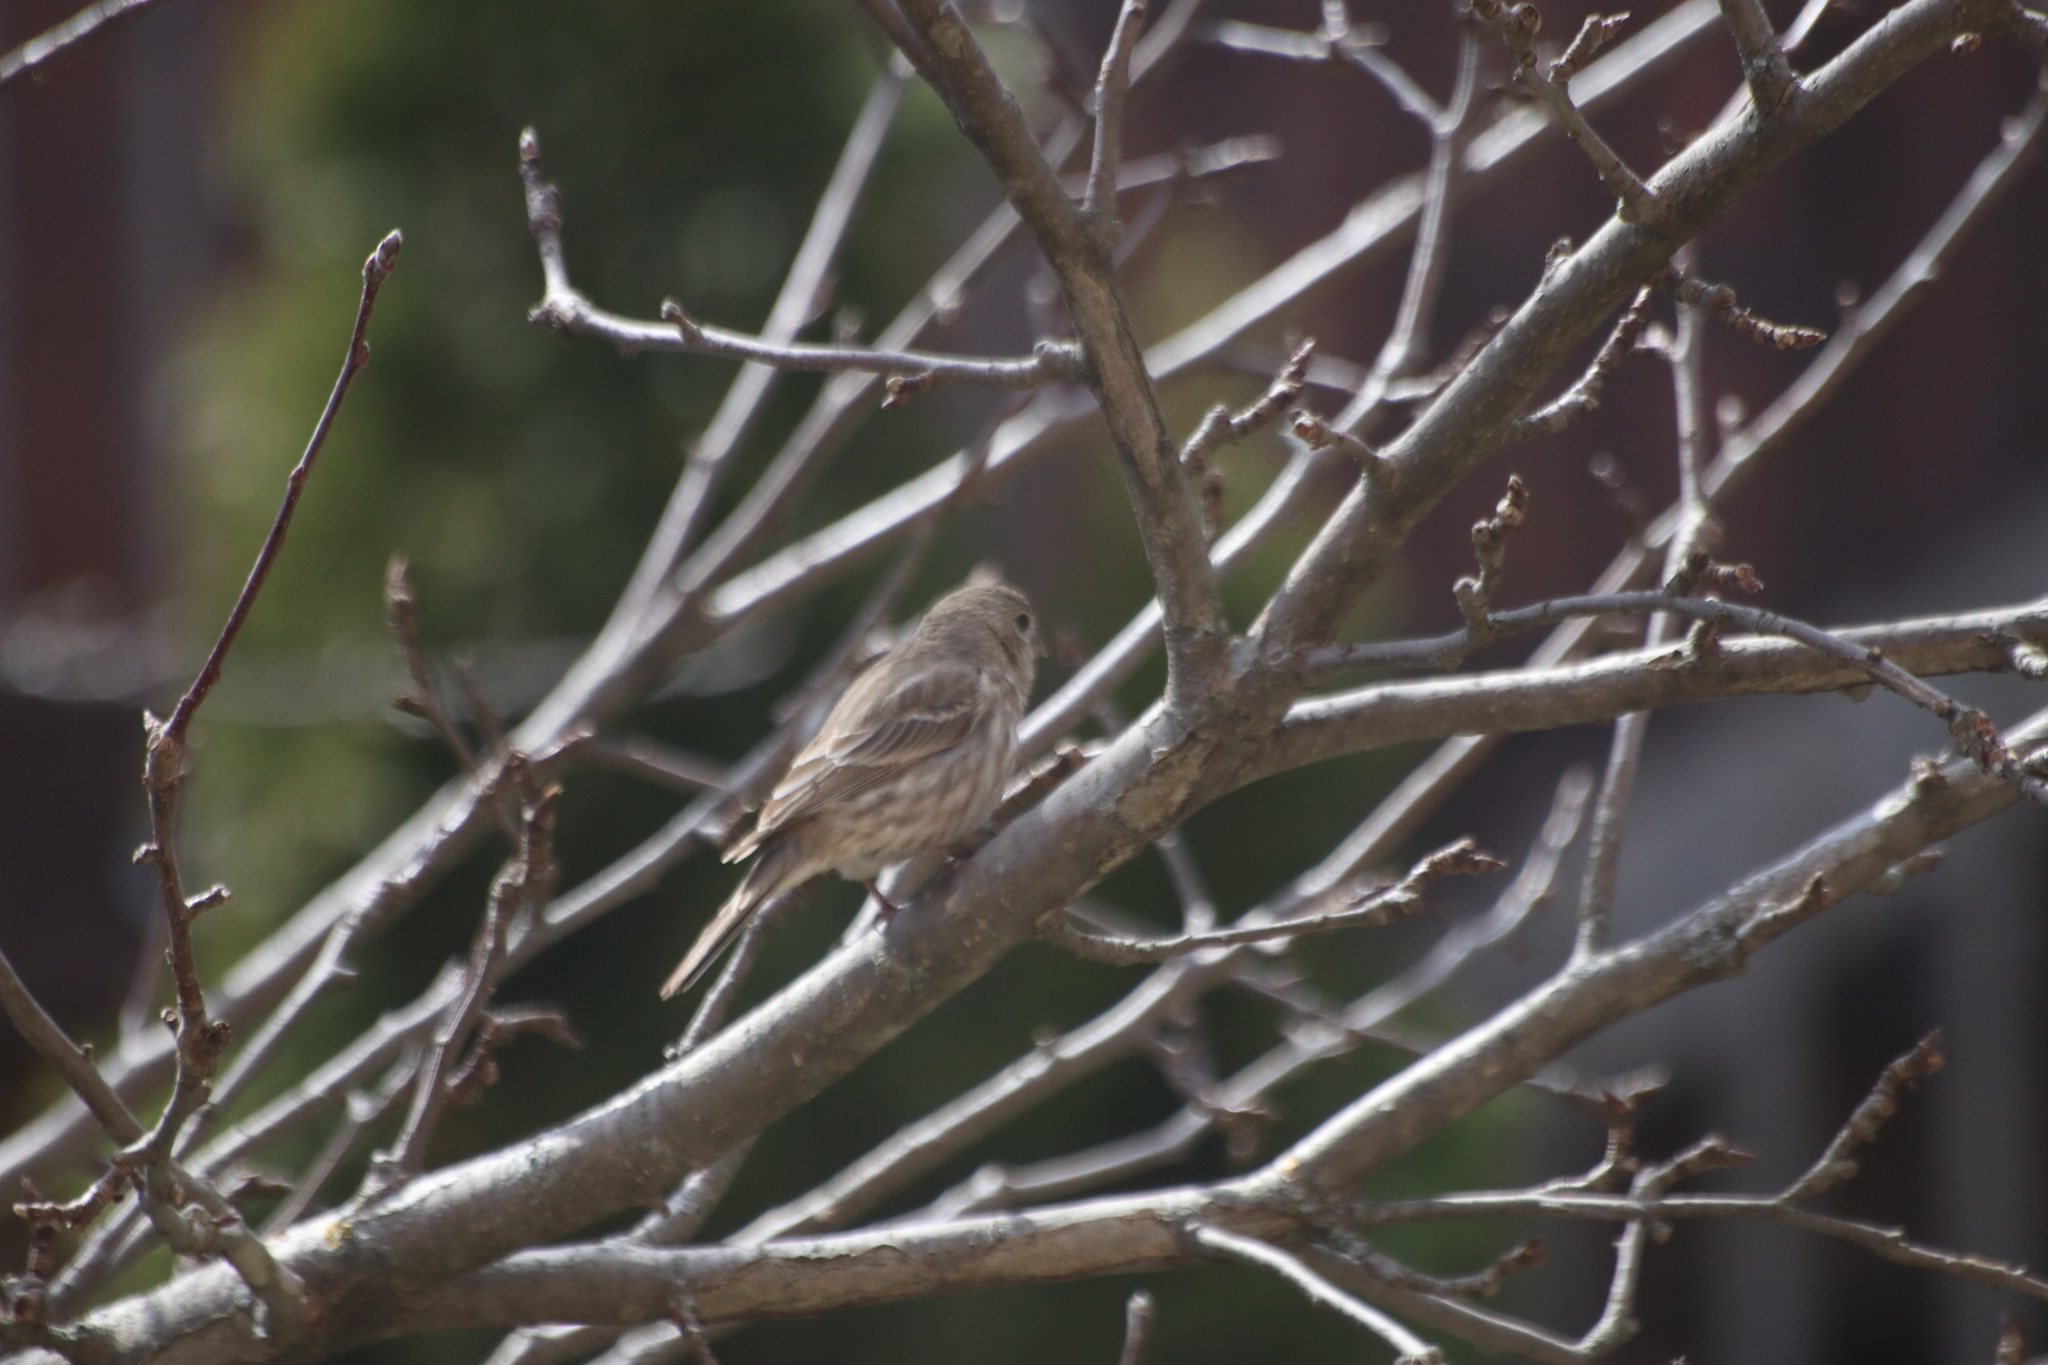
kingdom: Animalia
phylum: Chordata
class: Aves
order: Passeriformes
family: Fringillidae
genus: Haemorhous
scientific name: Haemorhous mexicanus
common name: House finch
